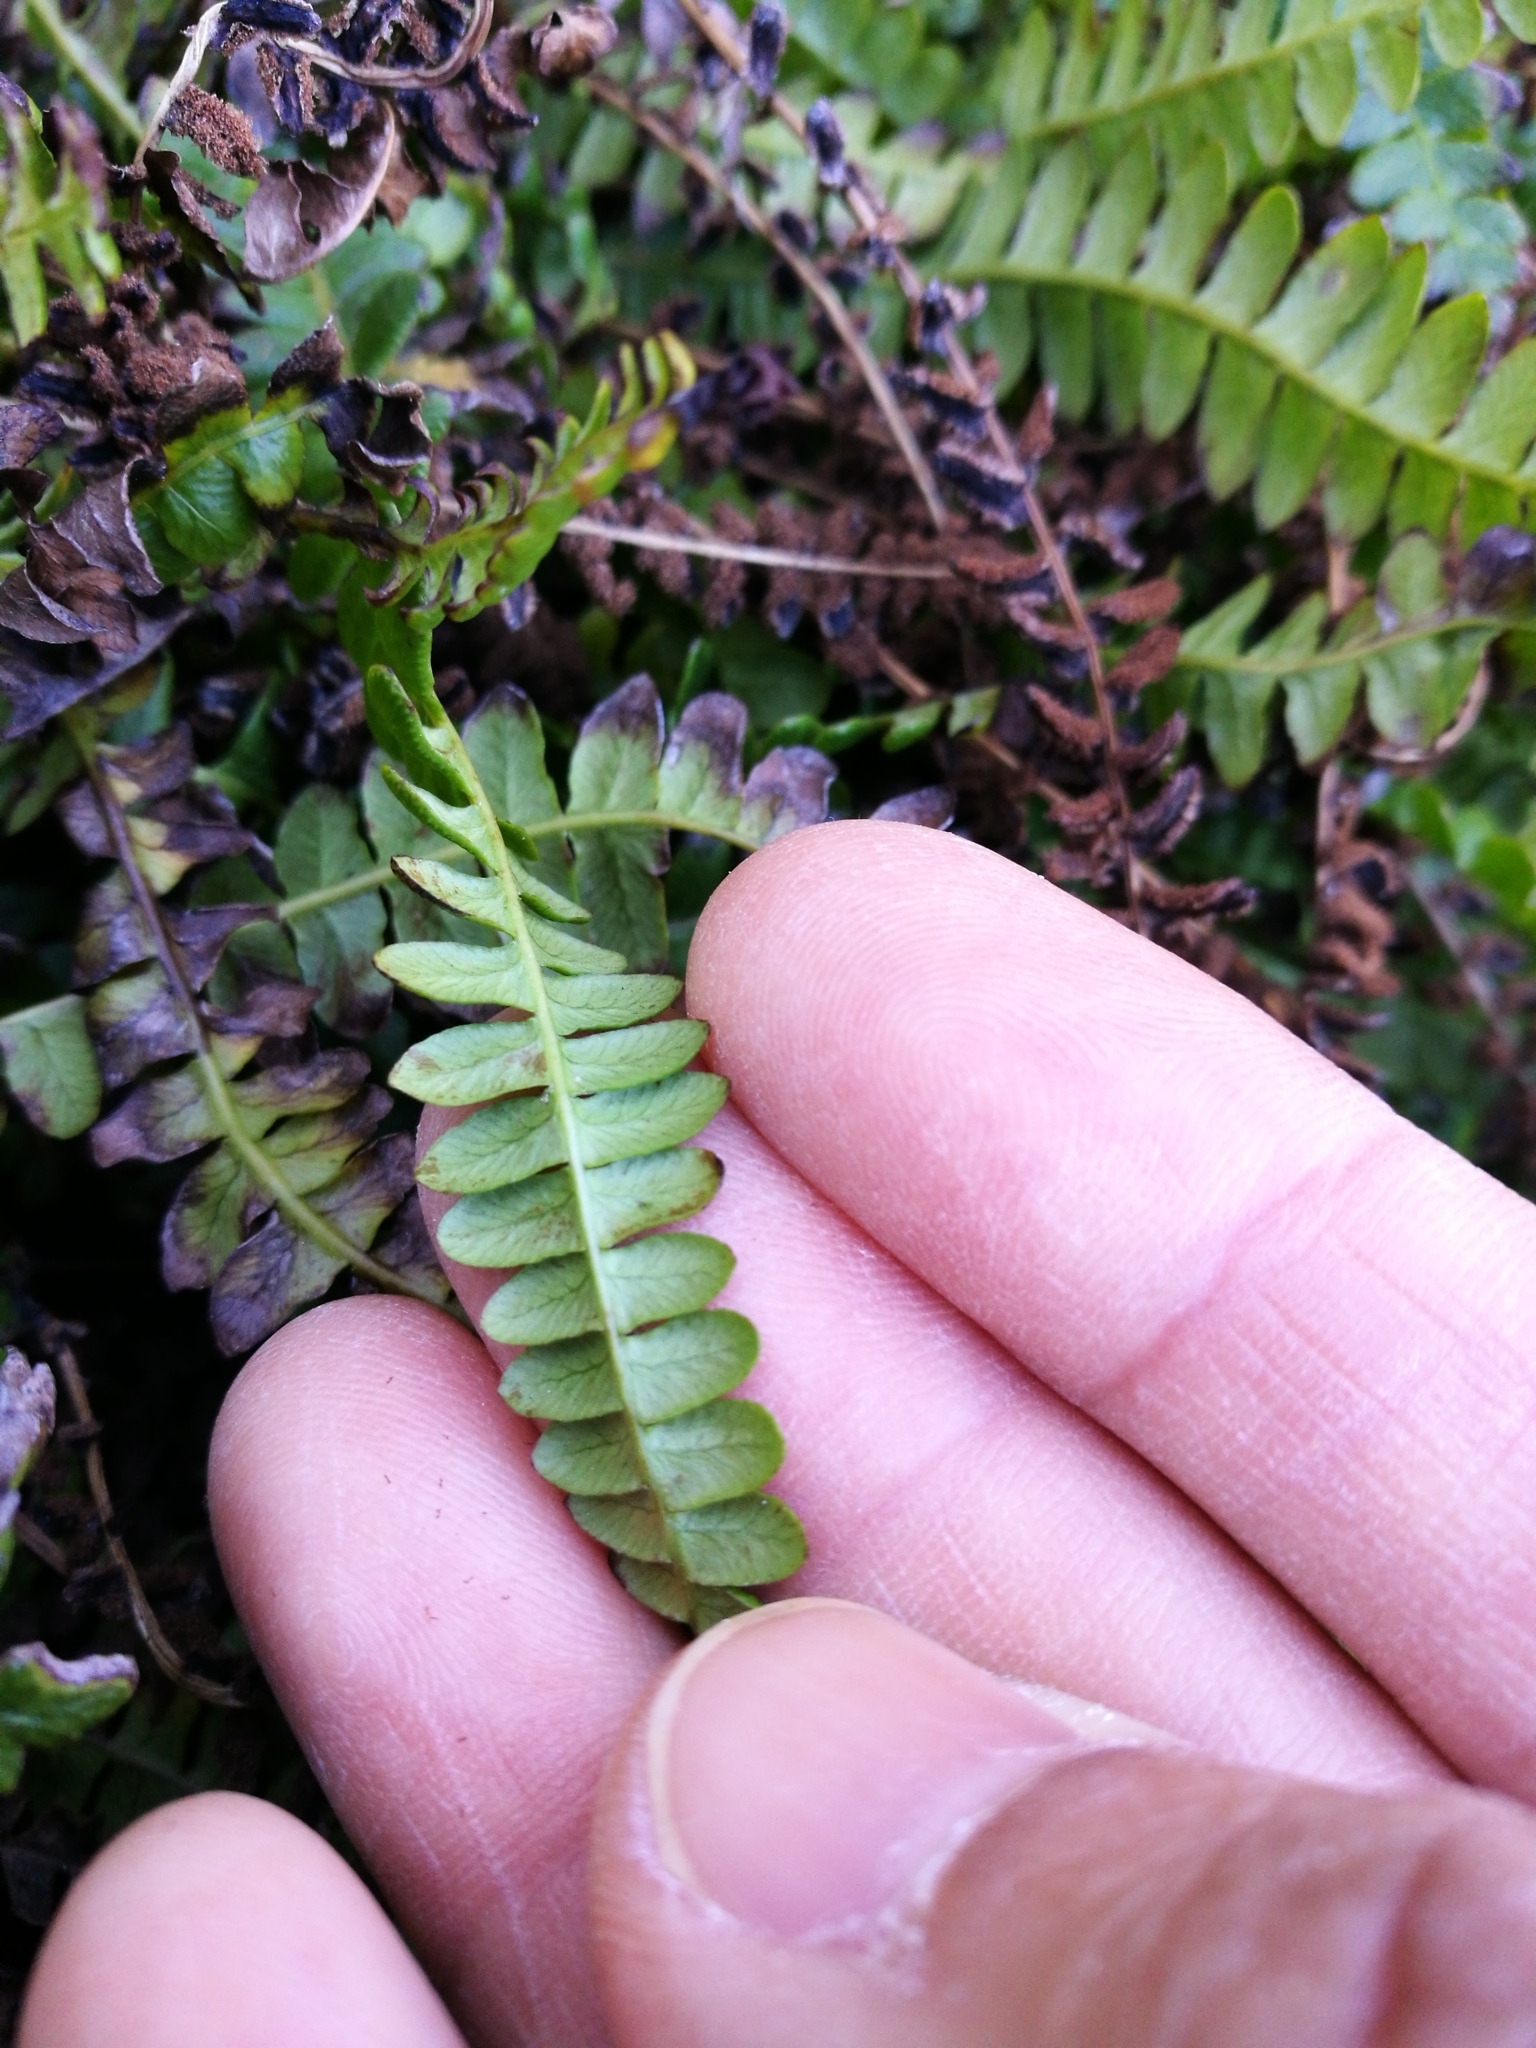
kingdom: Plantae
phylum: Tracheophyta
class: Polypodiopsida
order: Polypodiales
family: Blechnaceae
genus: Austroblechnum
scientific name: Austroblechnum penna-marina
